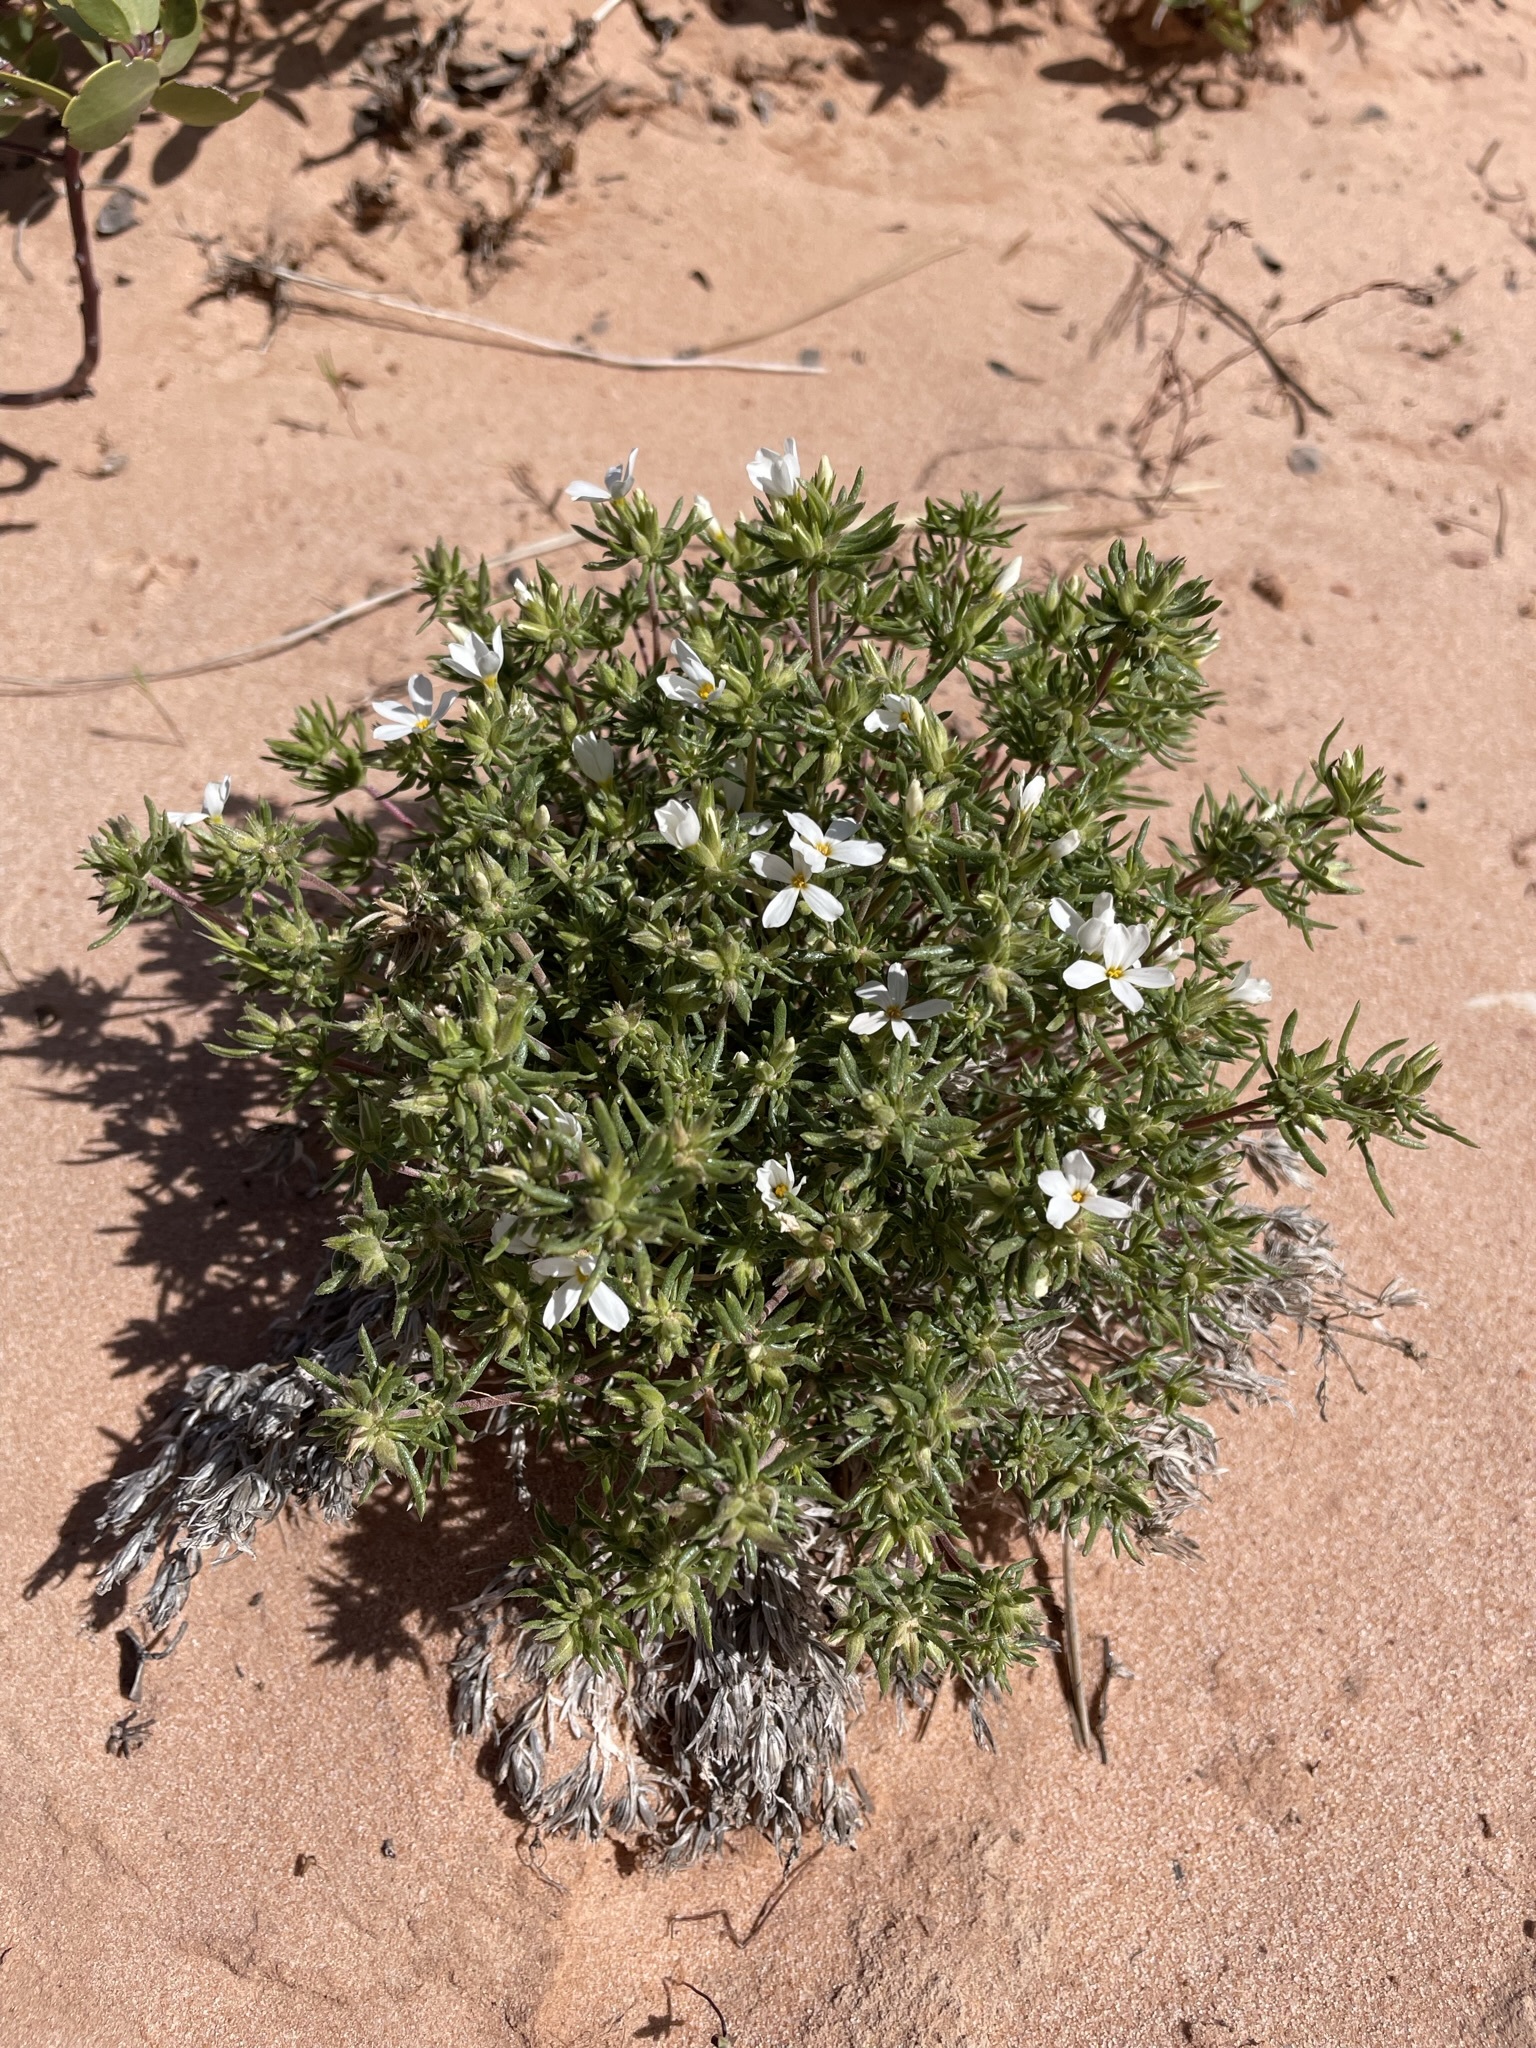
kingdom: Plantae
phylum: Tracheophyta
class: Magnoliopsida
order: Ericales
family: Polemoniaceae
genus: Leptosiphon
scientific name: Leptosiphon nuttallii
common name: Nuttall's linanthus
